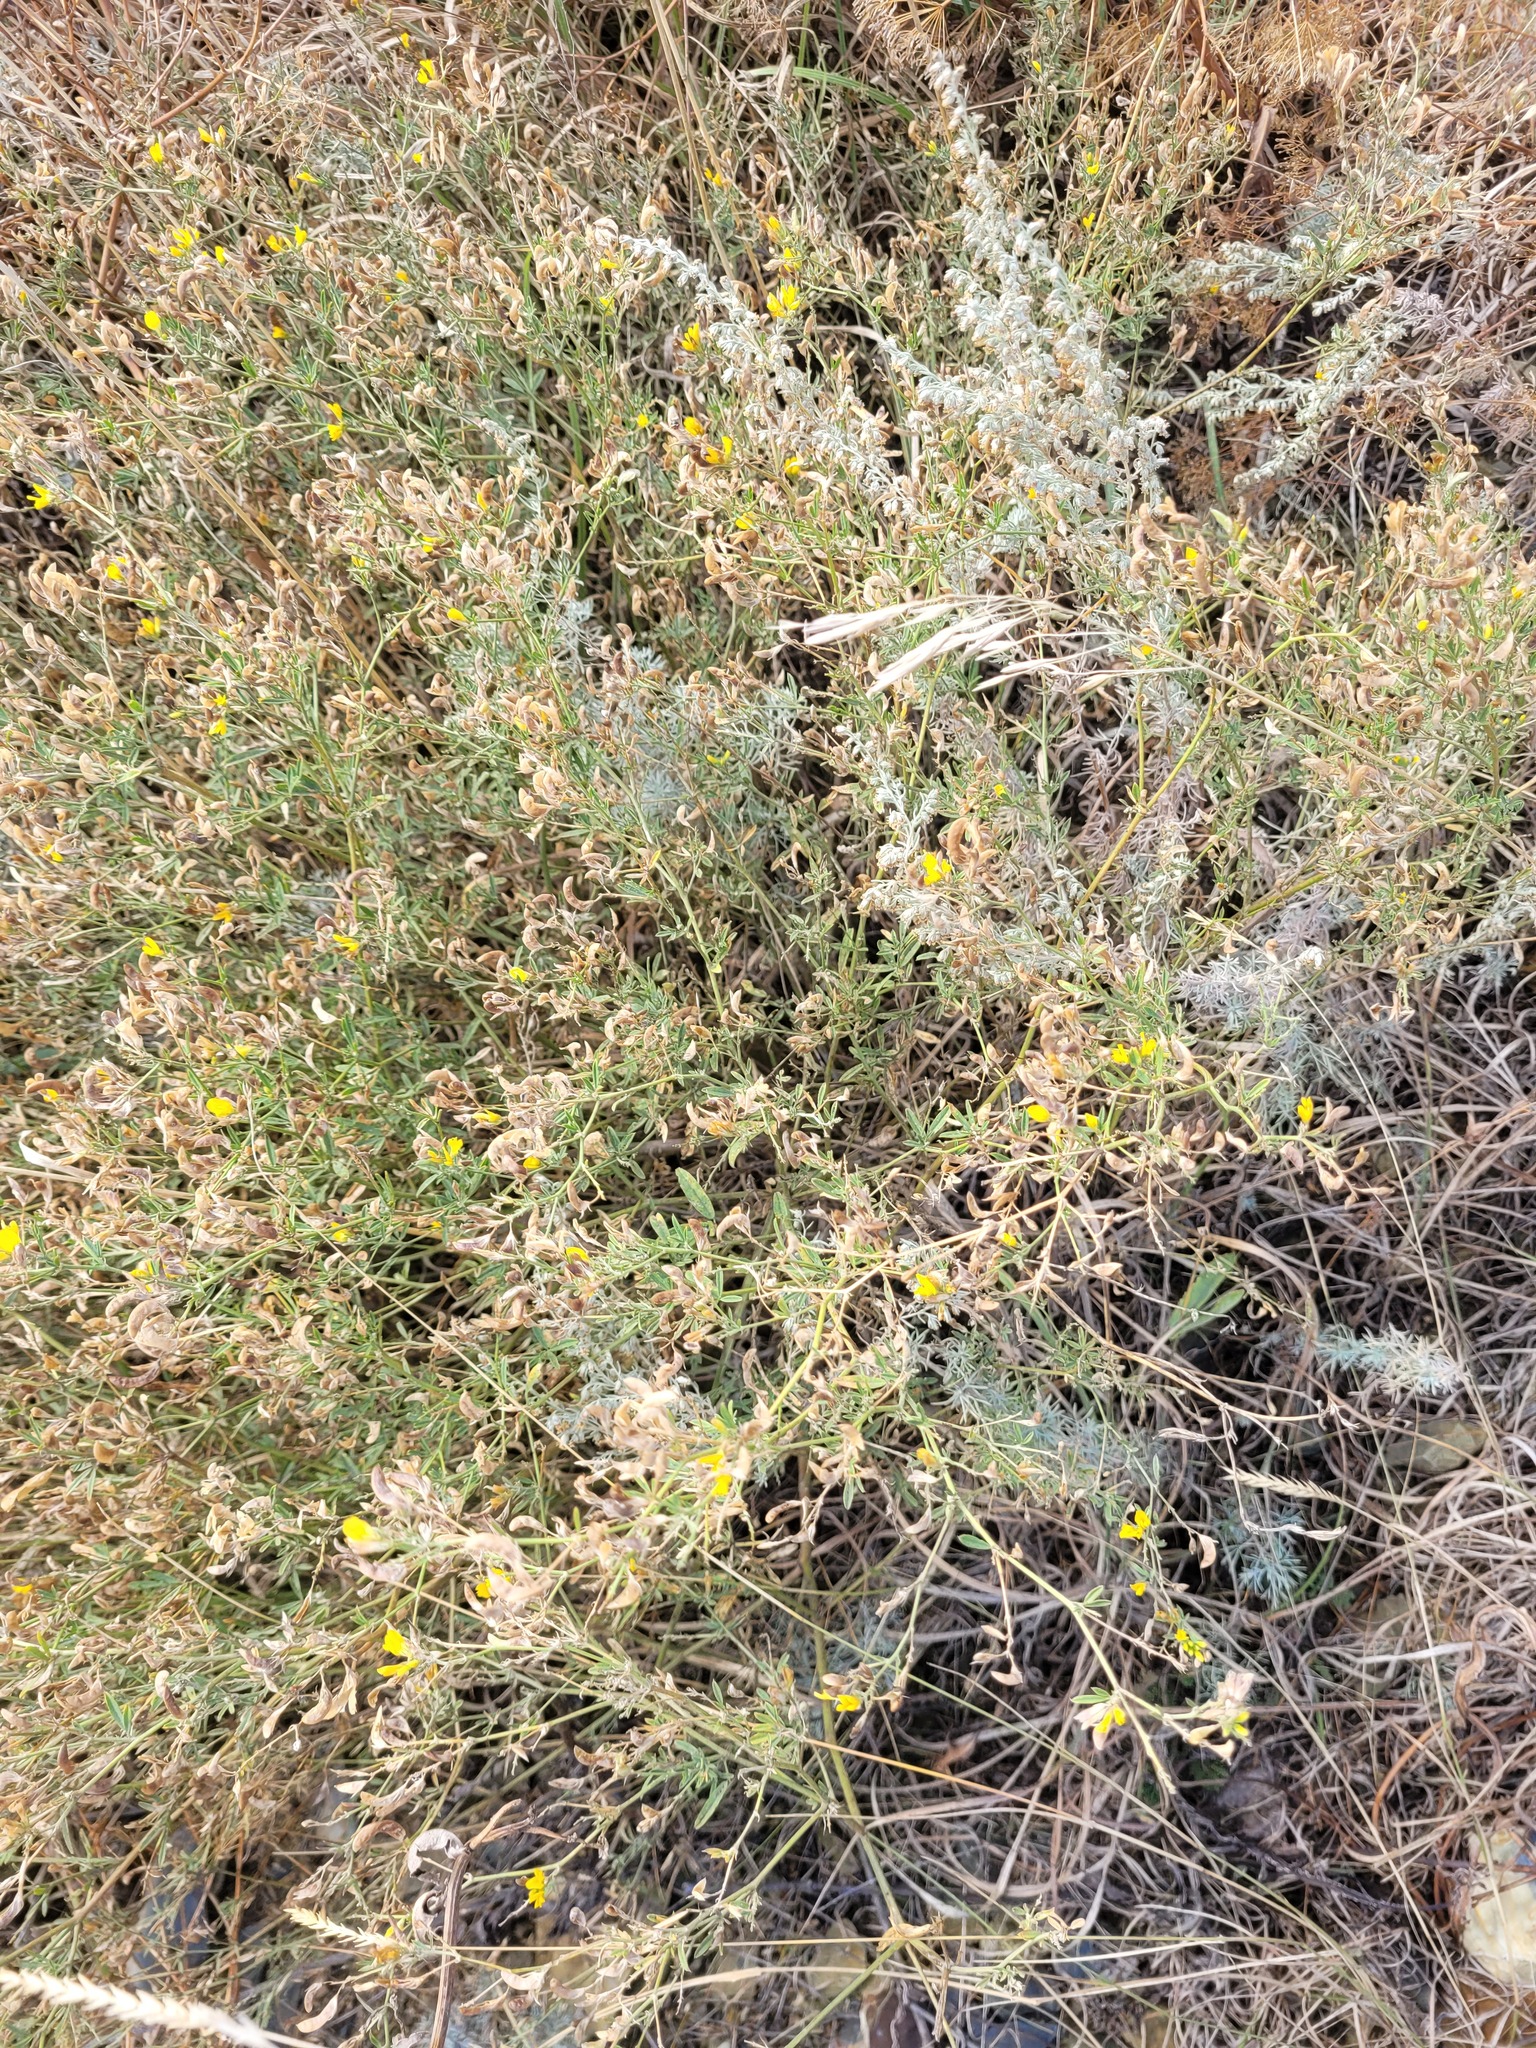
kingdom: Plantae
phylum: Tracheophyta
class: Magnoliopsida
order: Fabales
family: Fabaceae
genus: Medicago
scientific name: Medicago falcata
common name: Sickle medick
